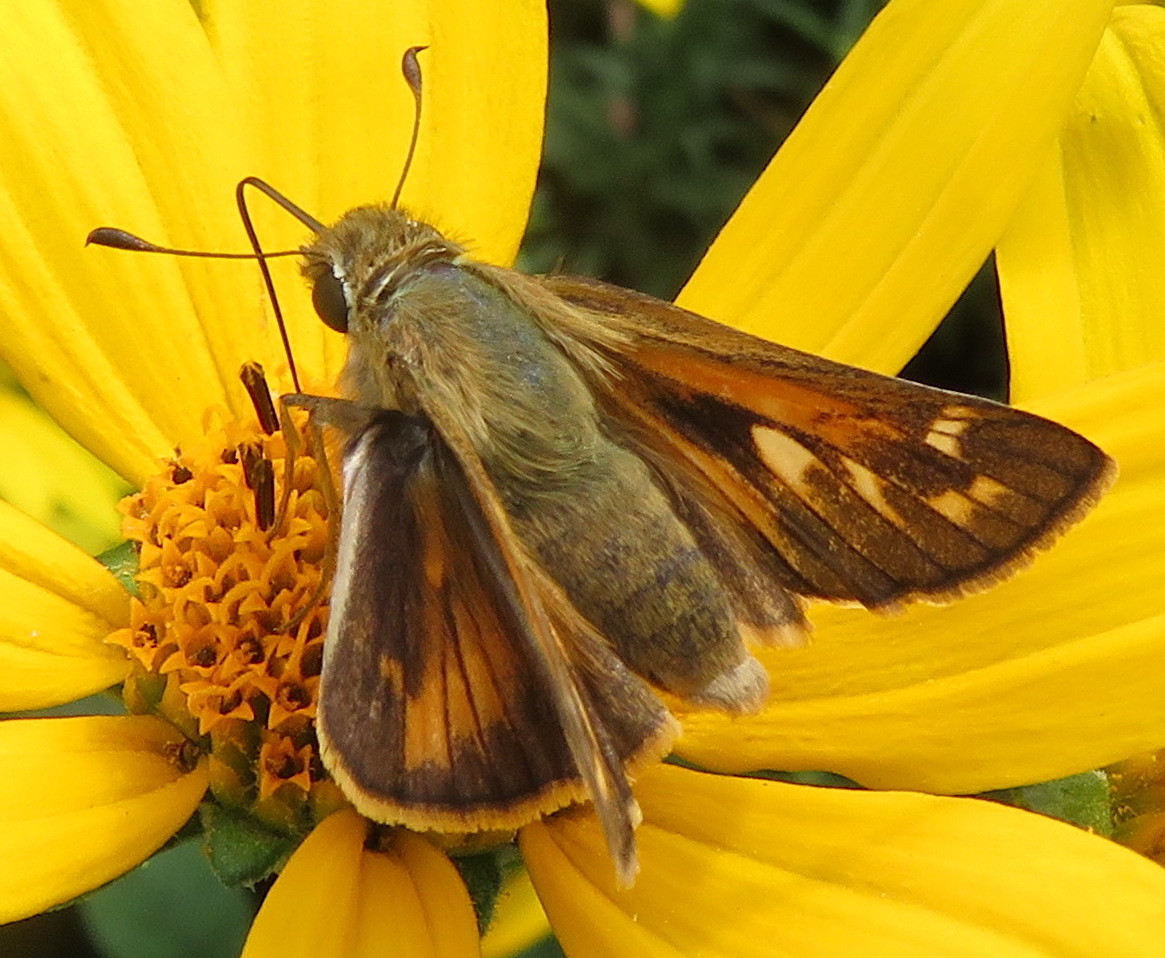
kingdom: Animalia
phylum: Arthropoda
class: Insecta
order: Lepidoptera
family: Hesperiidae
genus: Atalopedes
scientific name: Atalopedes
